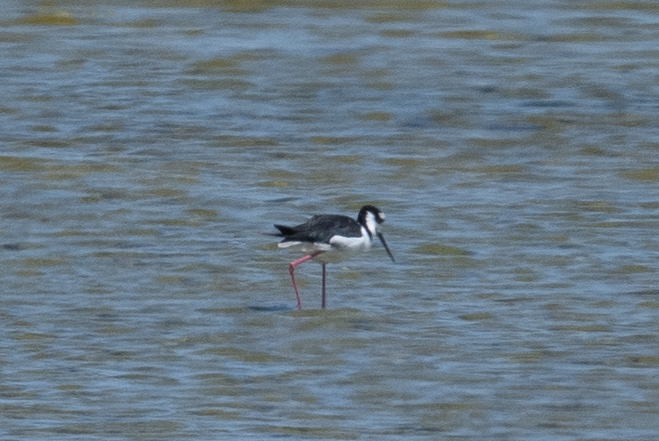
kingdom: Animalia
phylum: Chordata
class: Aves
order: Charadriiformes
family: Recurvirostridae
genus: Himantopus
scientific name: Himantopus mexicanus
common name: Black-necked stilt
